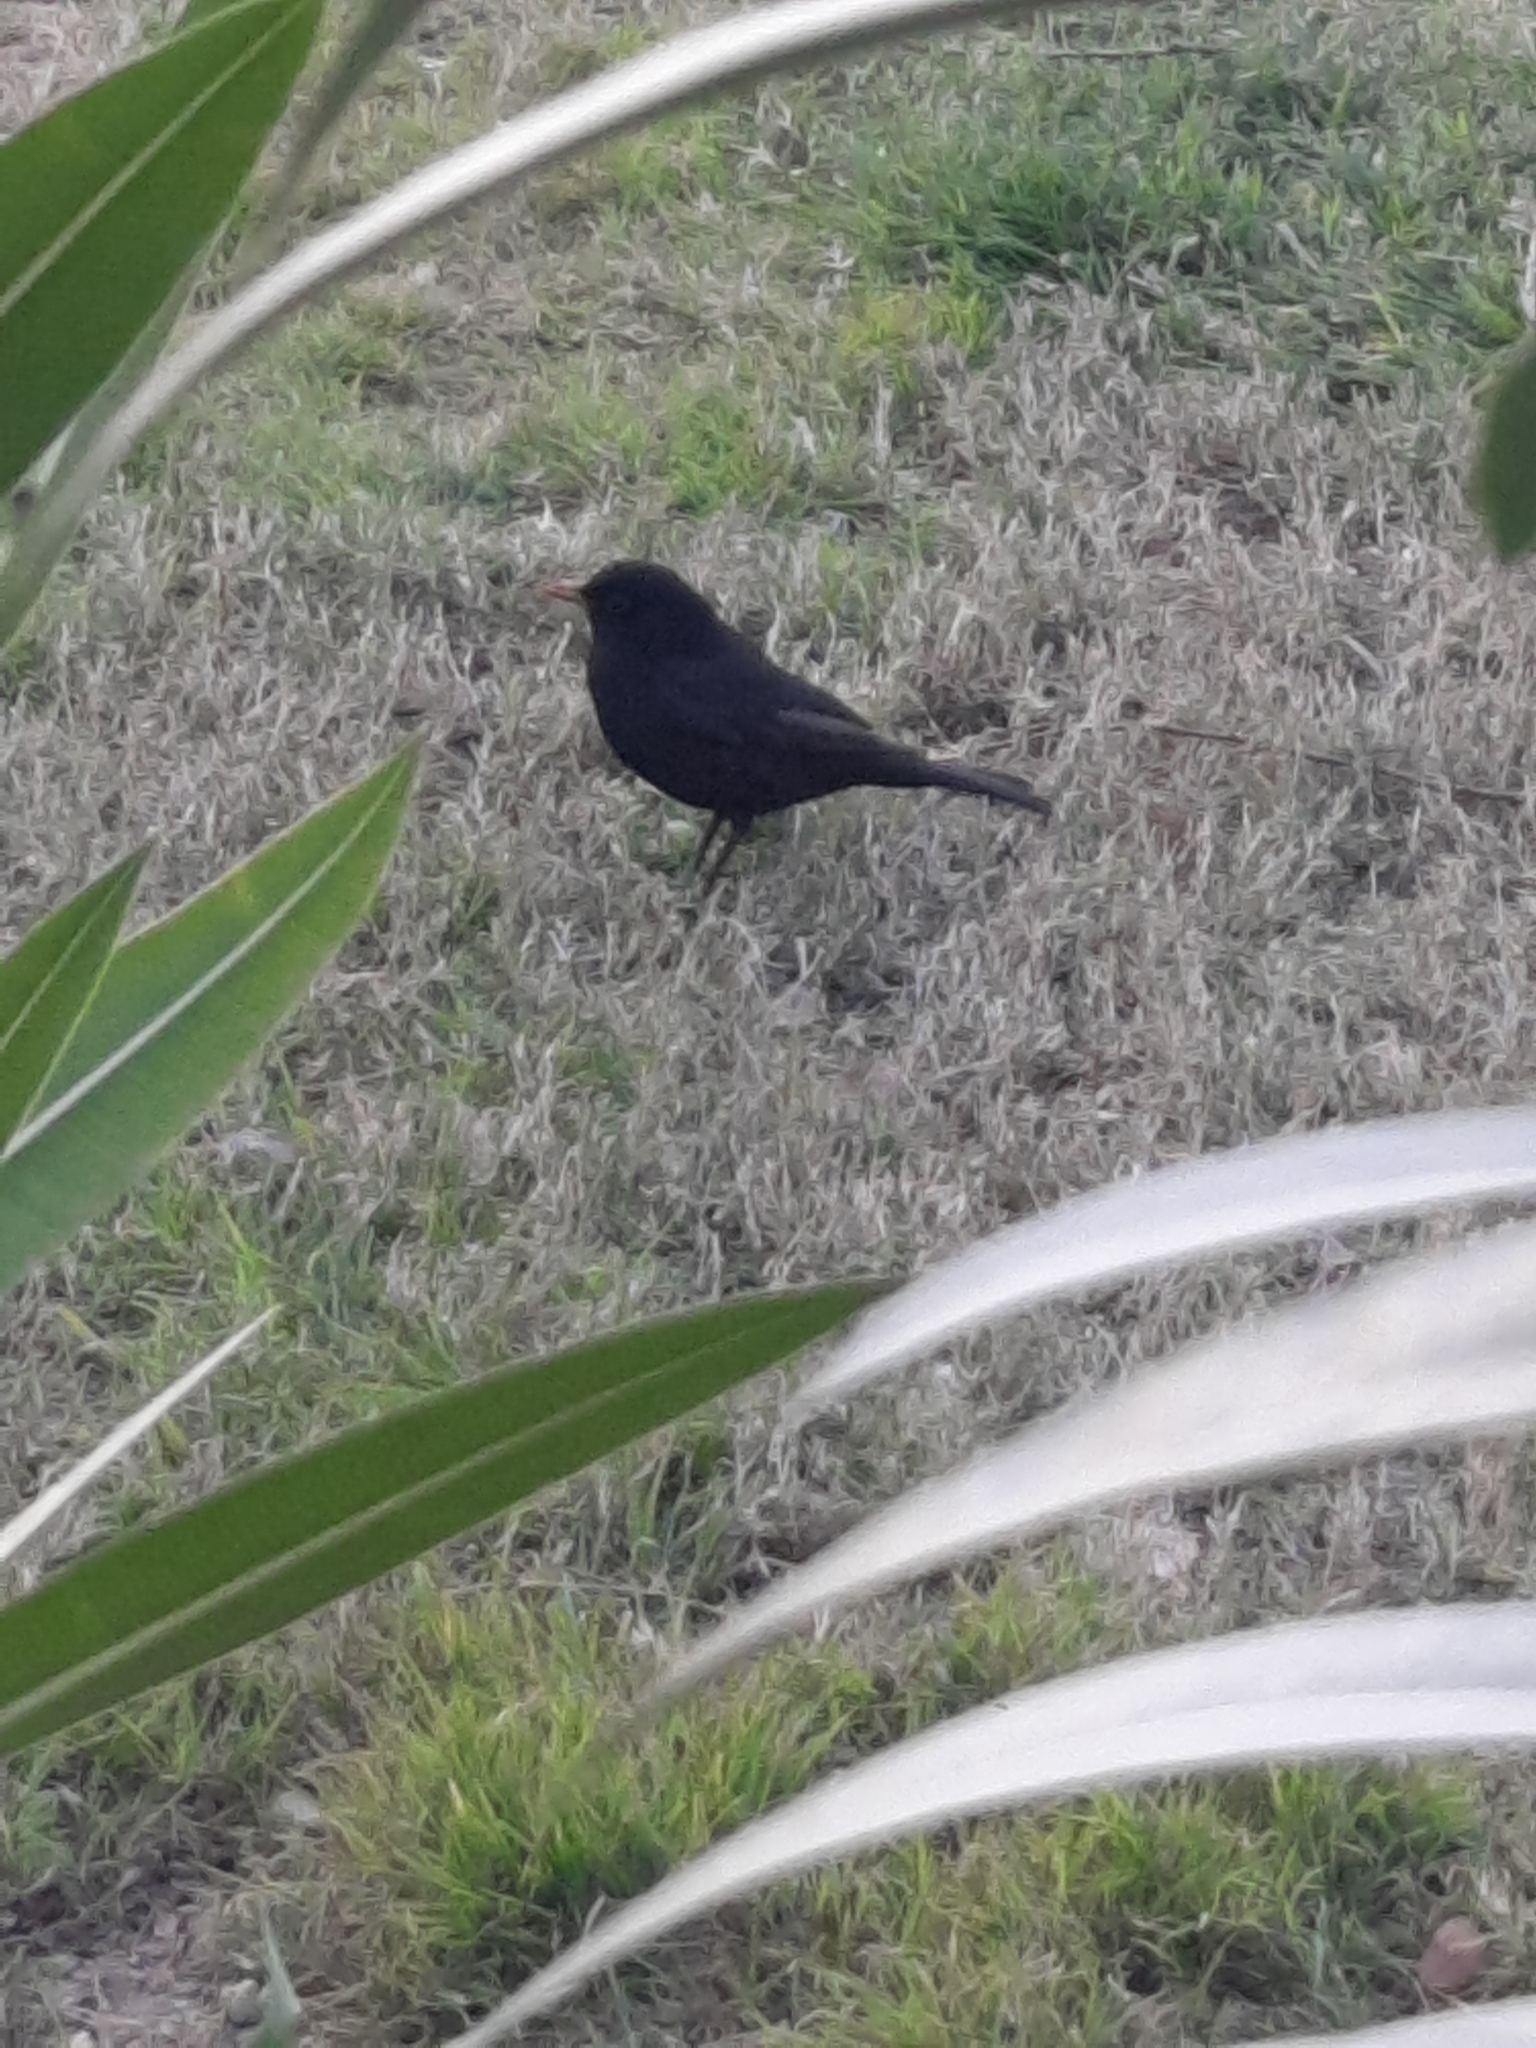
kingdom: Animalia
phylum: Chordata
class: Aves
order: Passeriformes
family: Turdidae
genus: Turdus
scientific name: Turdus merula
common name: Common blackbird
